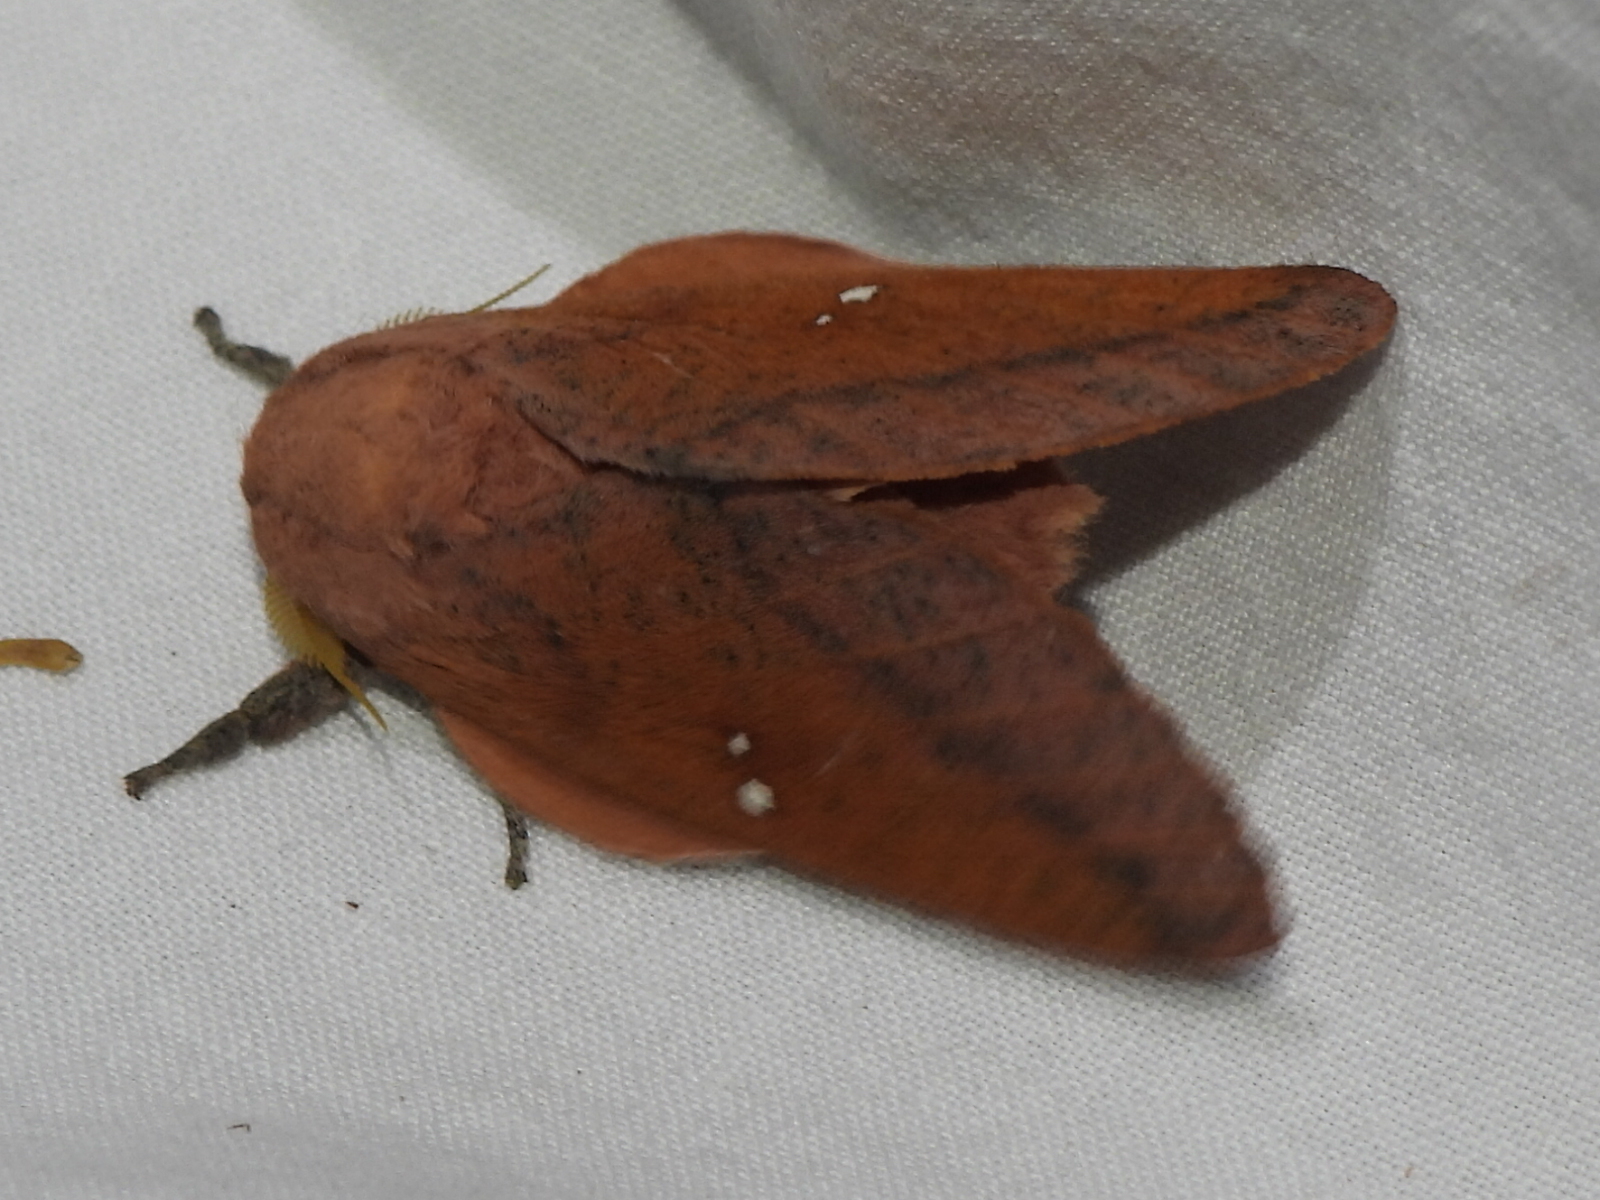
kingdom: Animalia
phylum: Arthropoda
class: Insecta
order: Lepidoptera
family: Saturniidae
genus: Syssphinx
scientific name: Syssphinx bicolor
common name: Honey locust moth
